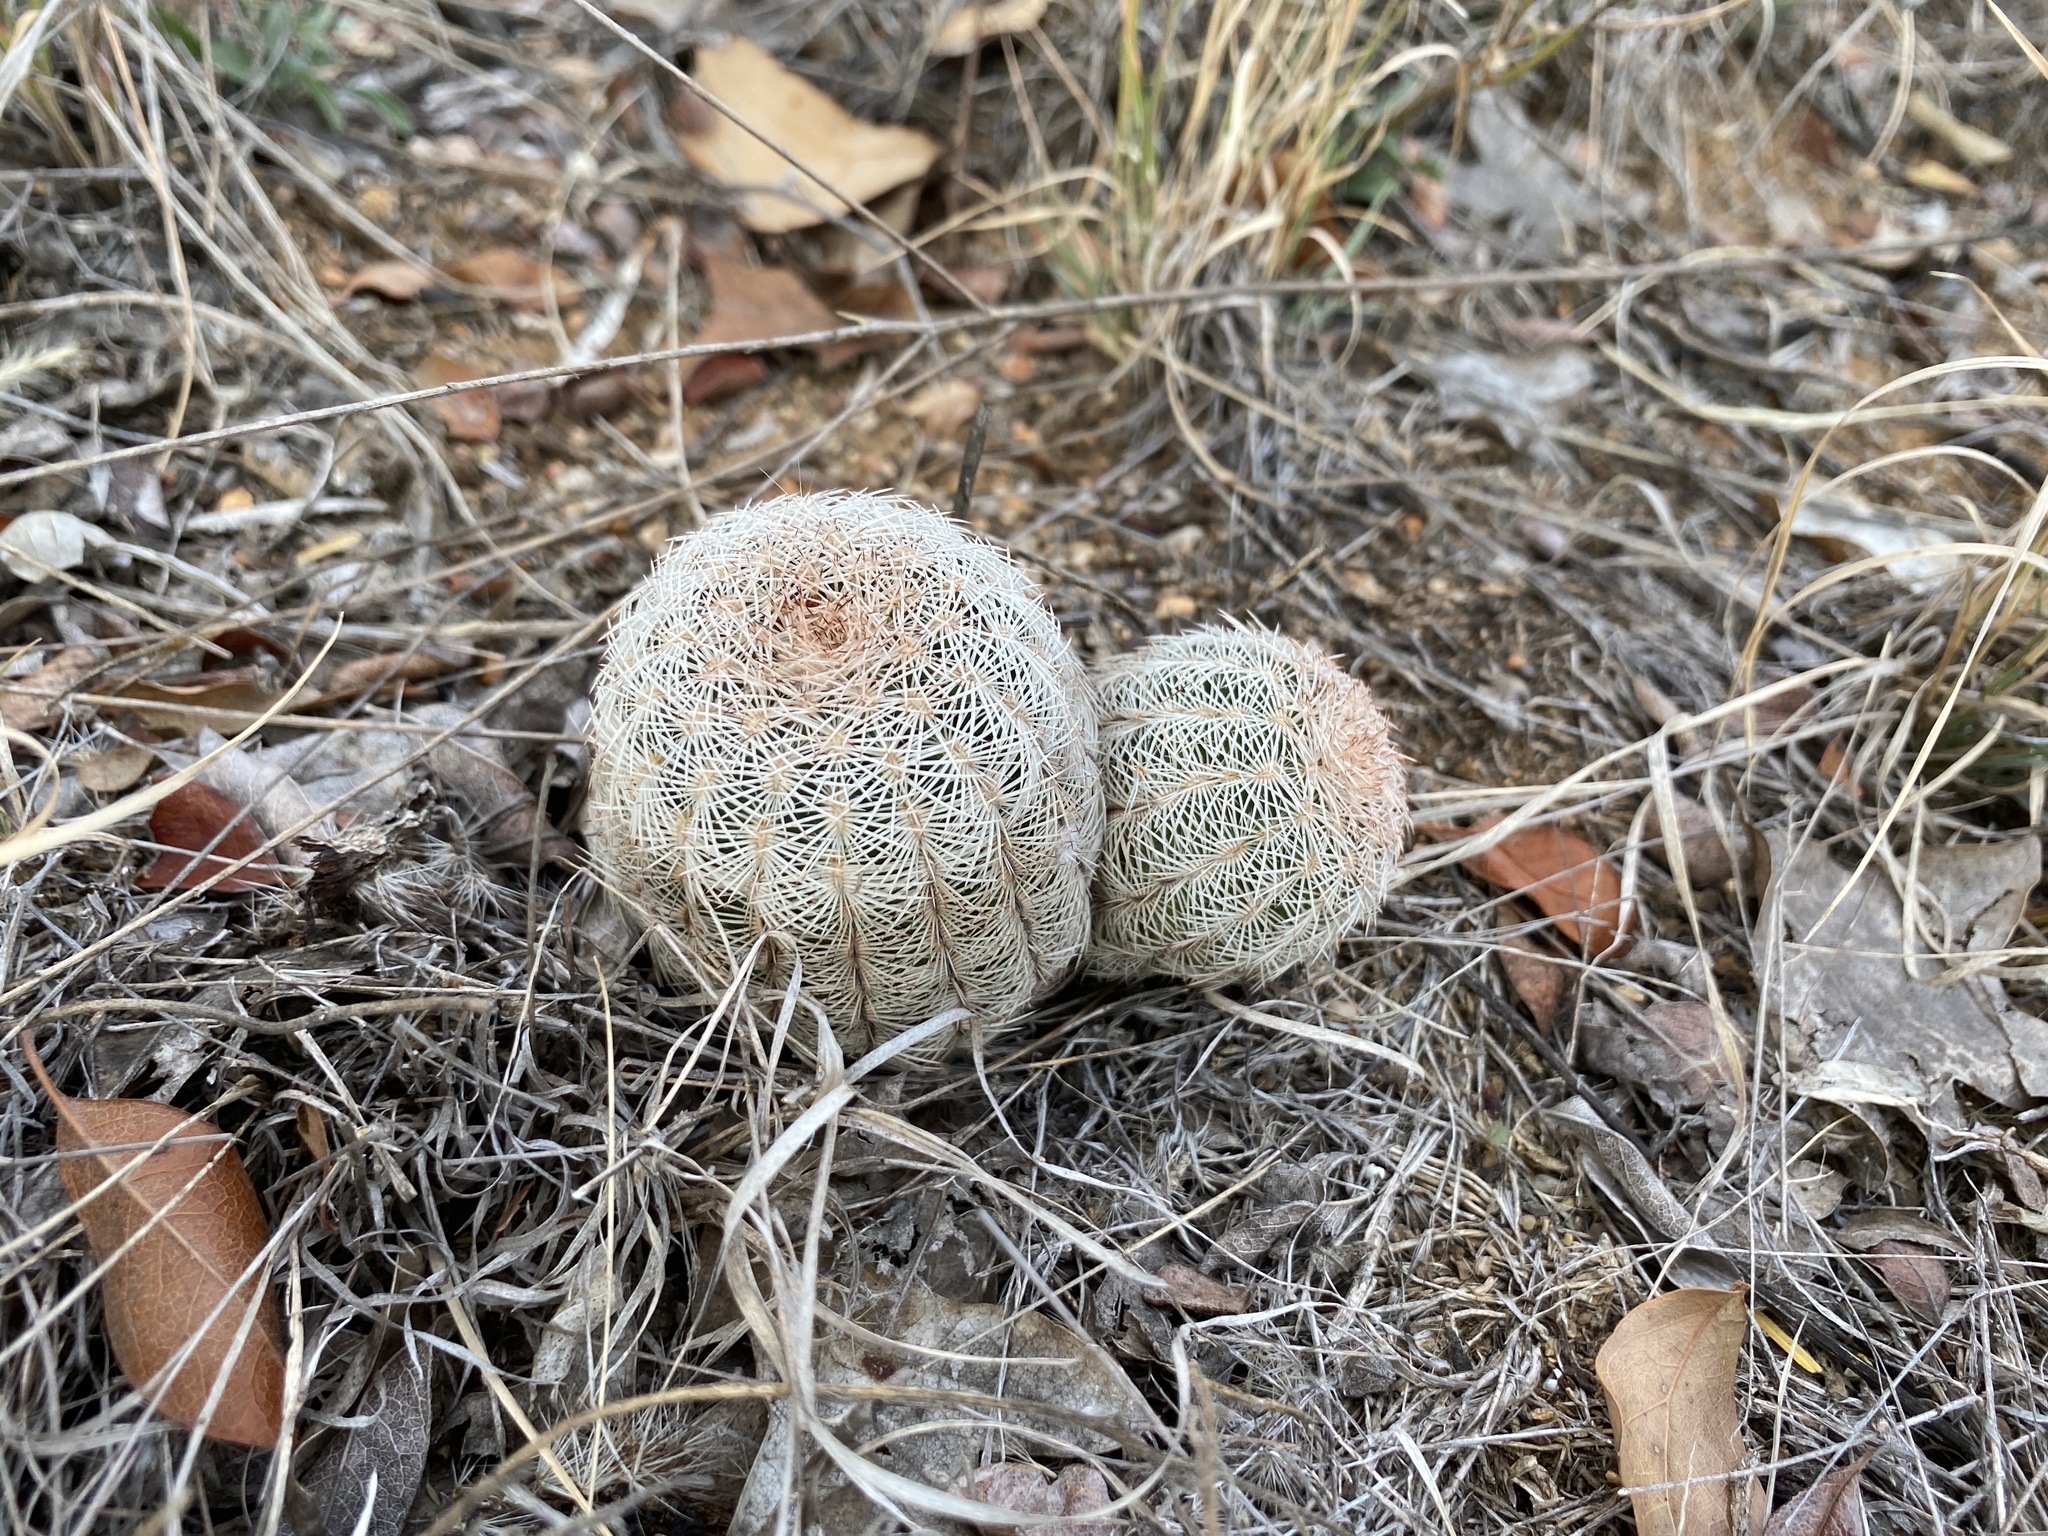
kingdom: Plantae
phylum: Tracheophyta
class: Magnoliopsida
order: Caryophyllales
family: Cactaceae
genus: Echinocereus
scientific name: Echinocereus reichenbachii
